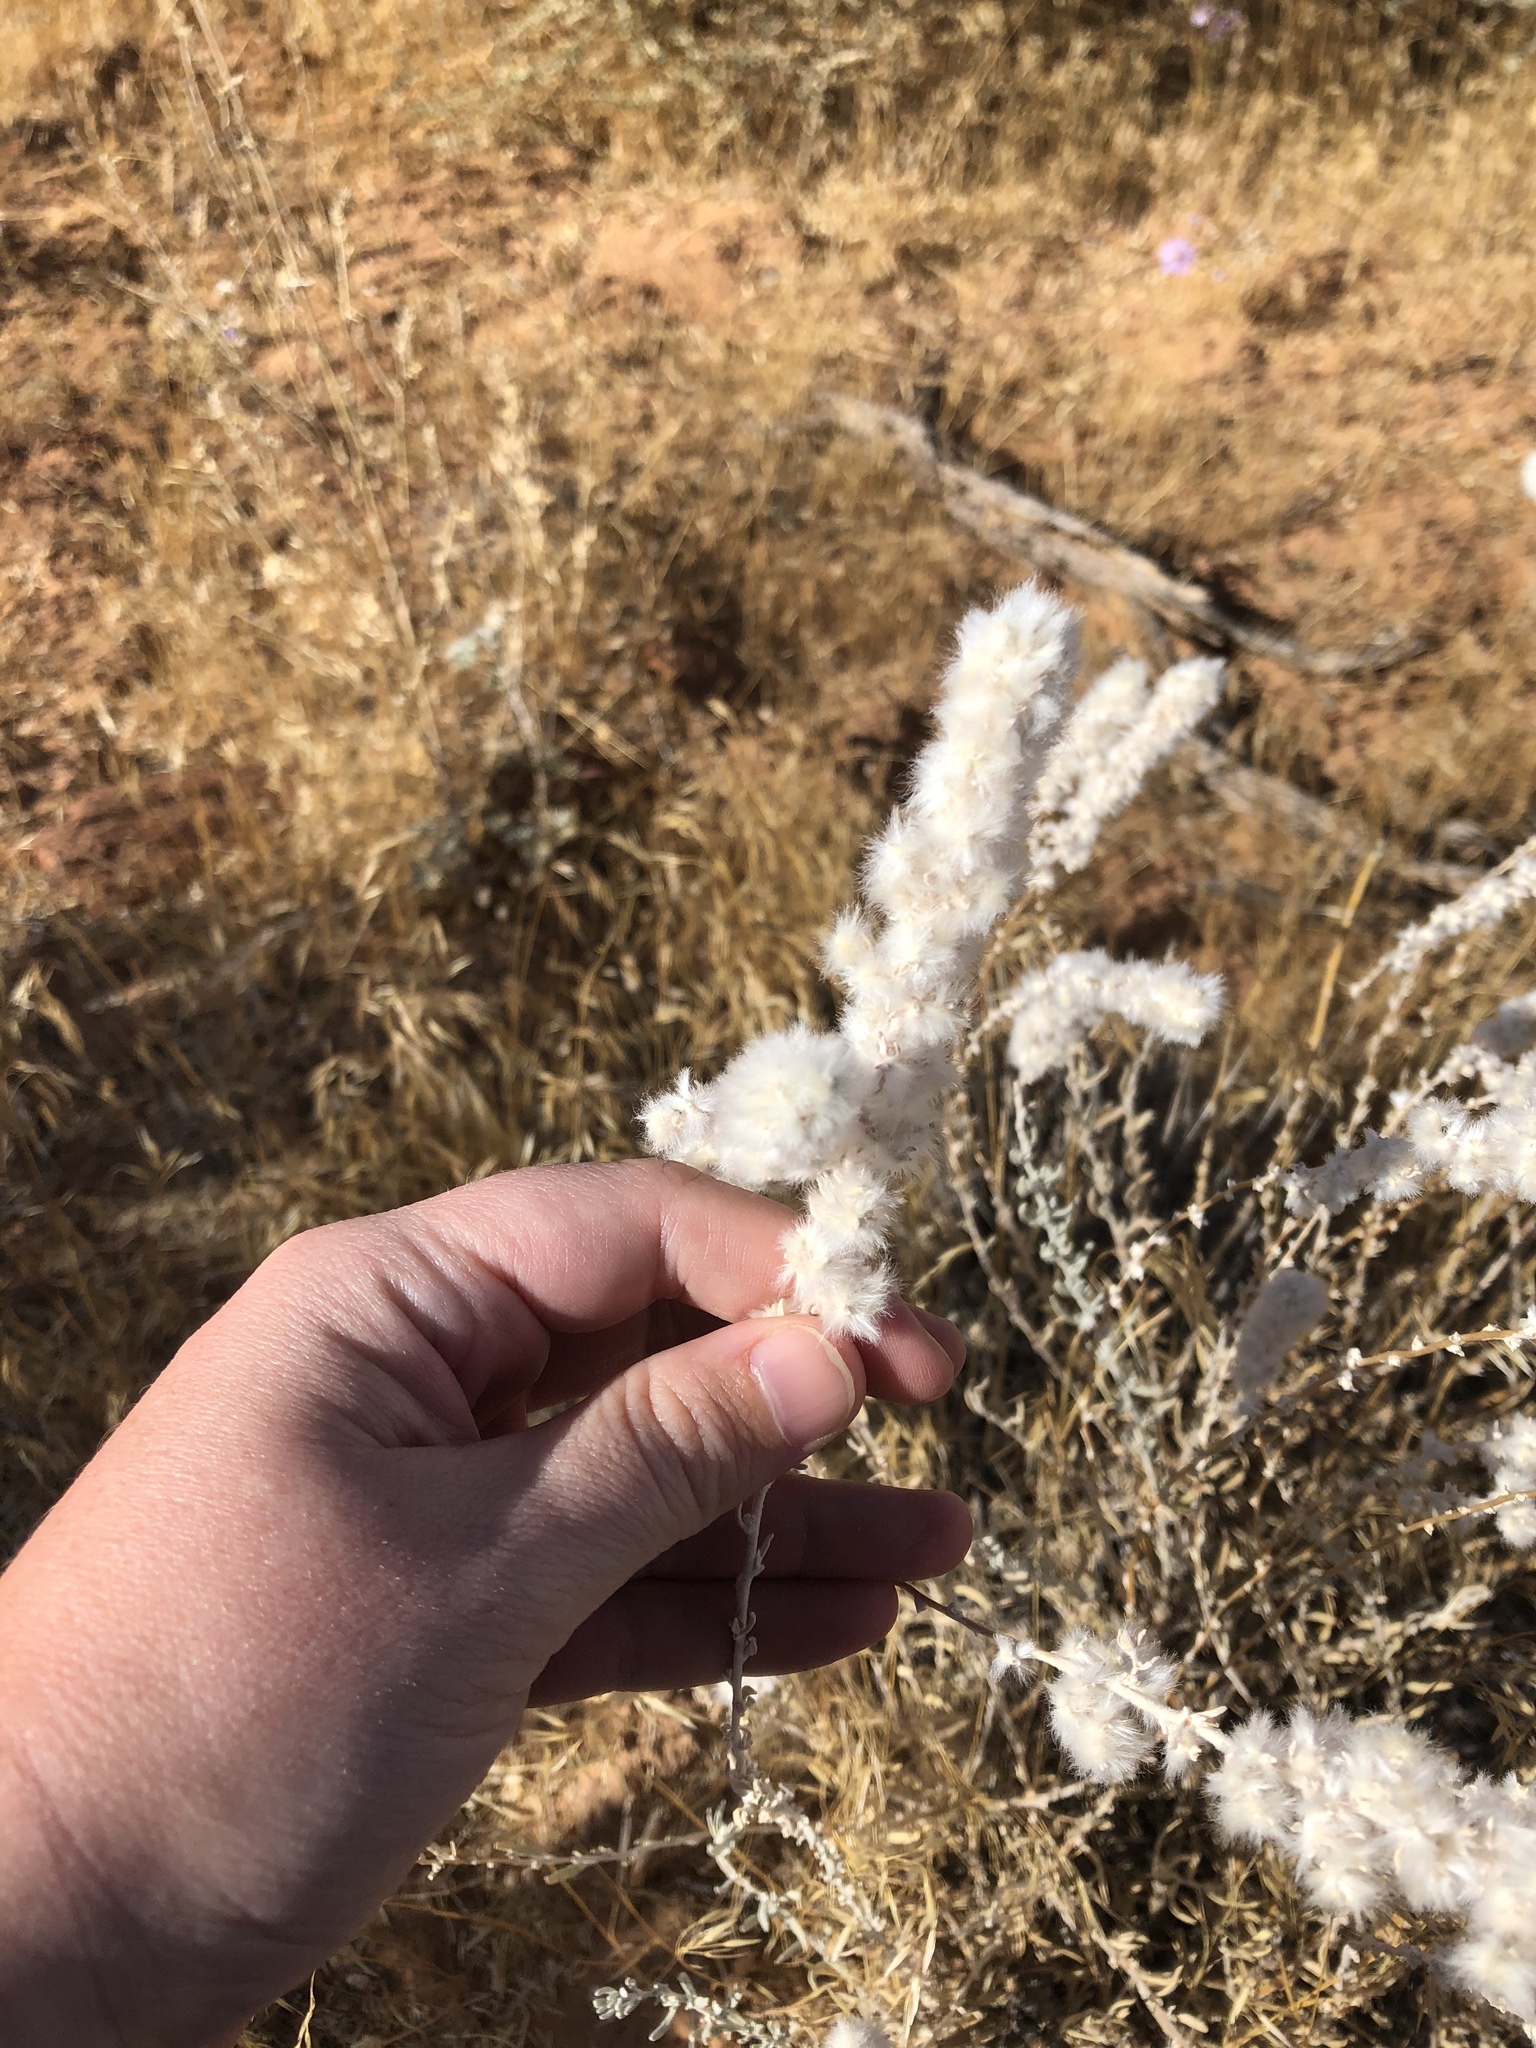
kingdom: Plantae
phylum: Tracheophyta
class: Magnoliopsida
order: Caryophyllales
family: Amaranthaceae
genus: Krascheninnikovia
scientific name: Krascheninnikovia lanata
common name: Winterfat
